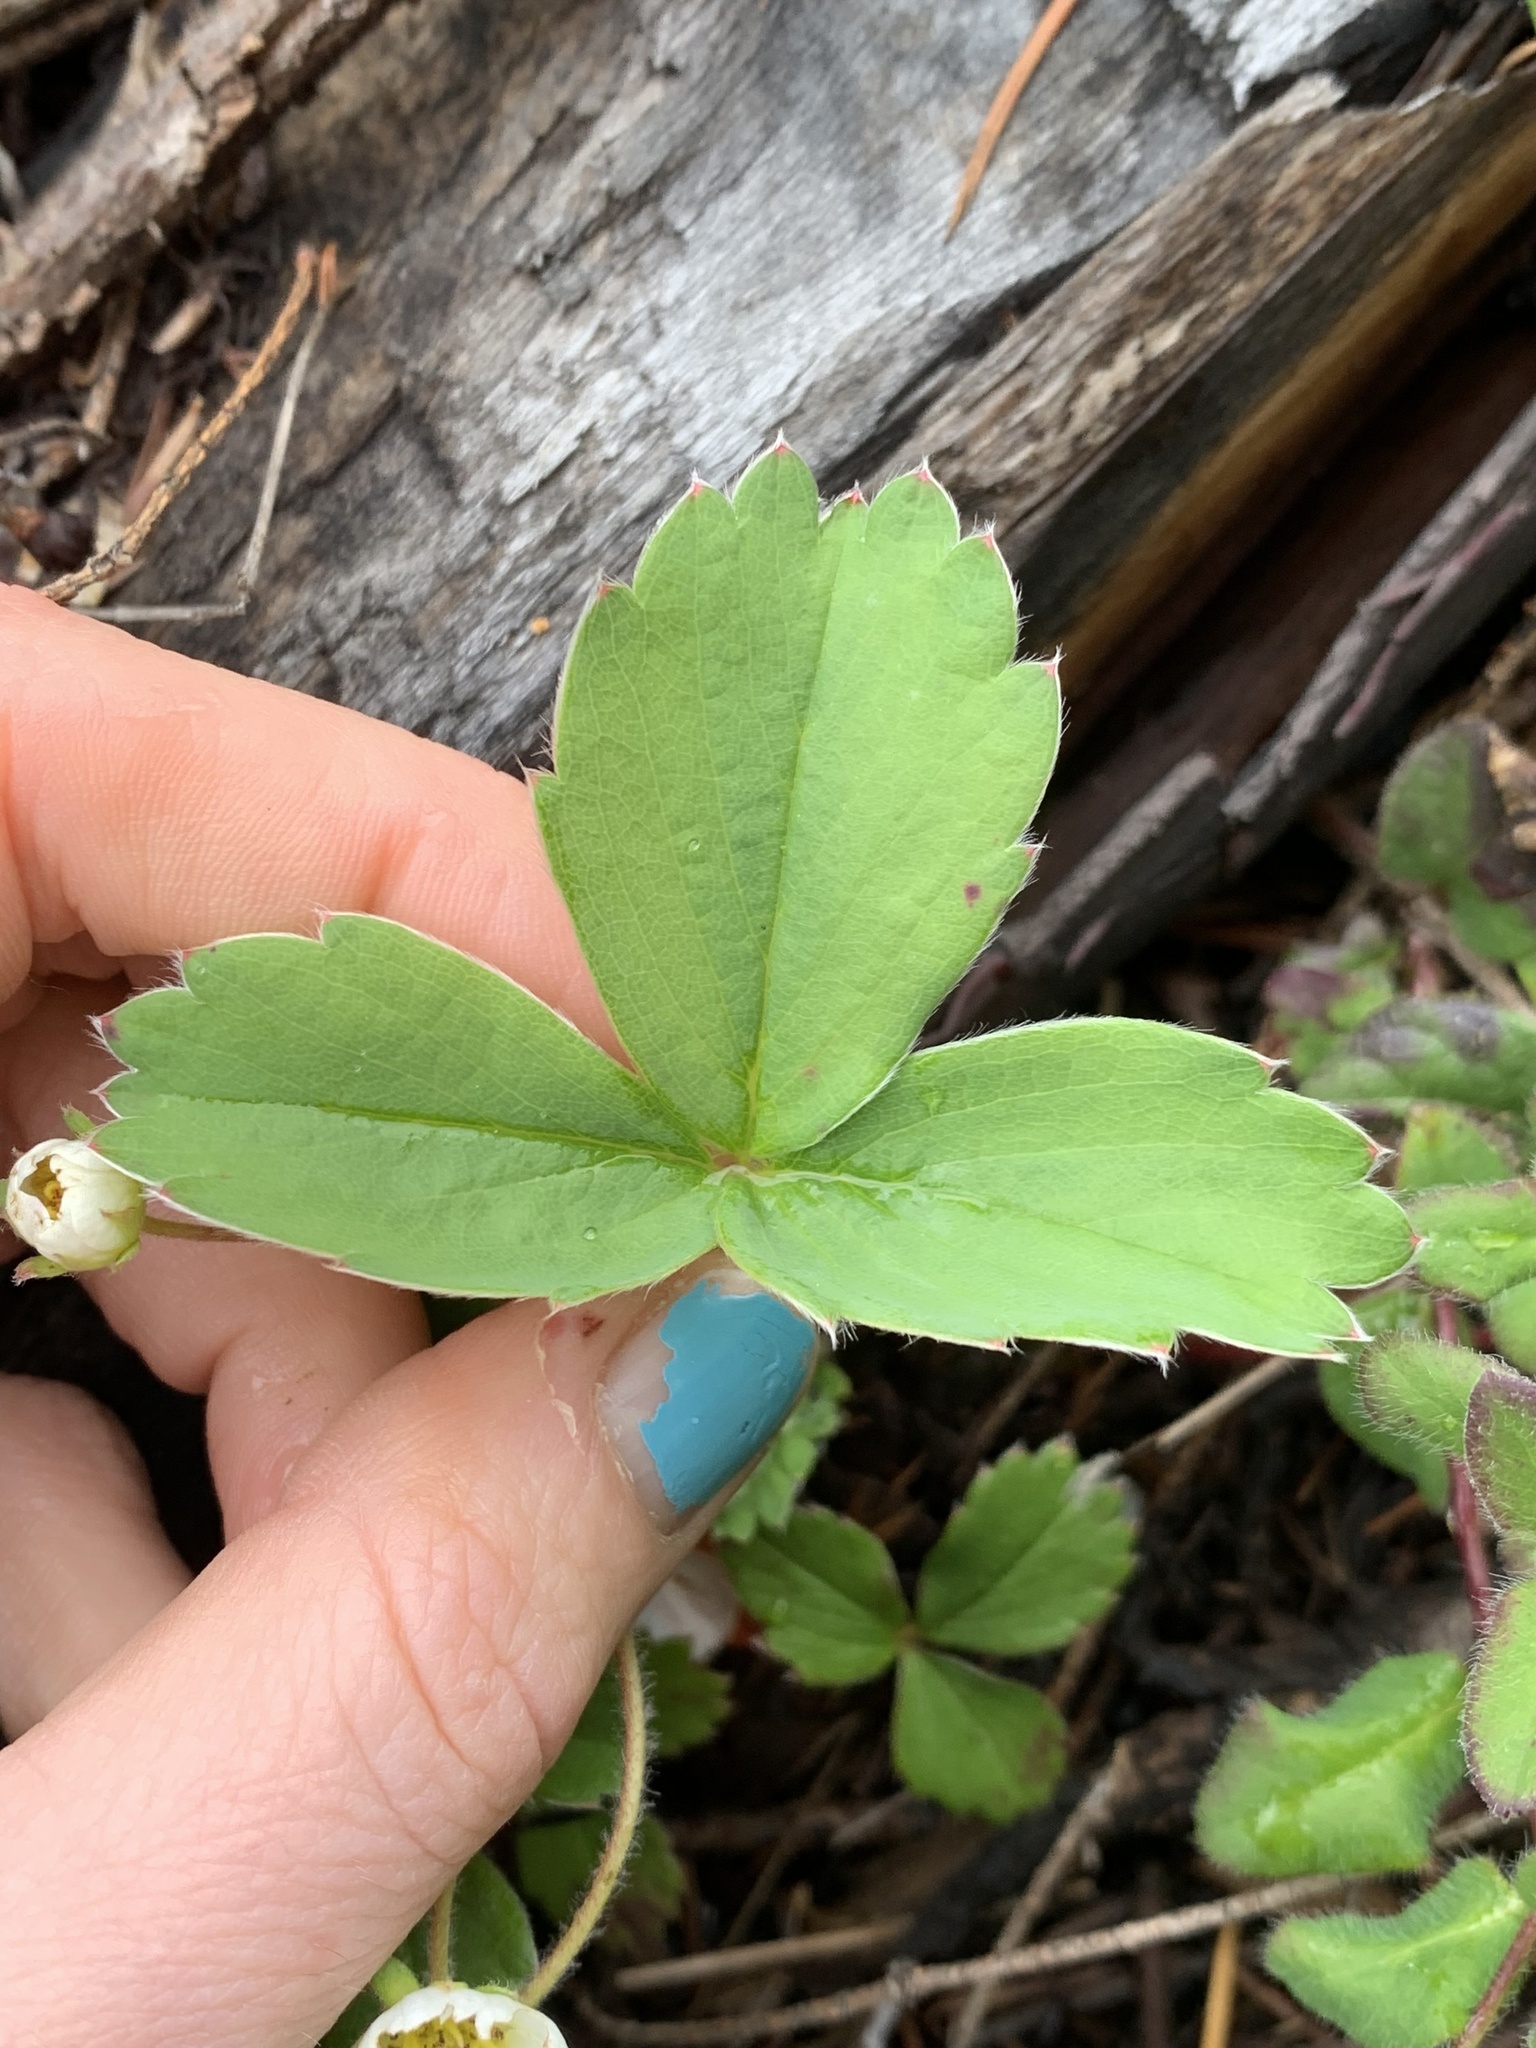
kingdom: Plantae
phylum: Tracheophyta
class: Magnoliopsida
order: Rosales
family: Rosaceae
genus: Fragaria
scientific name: Fragaria virginiana
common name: Thickleaved wild strawberry
